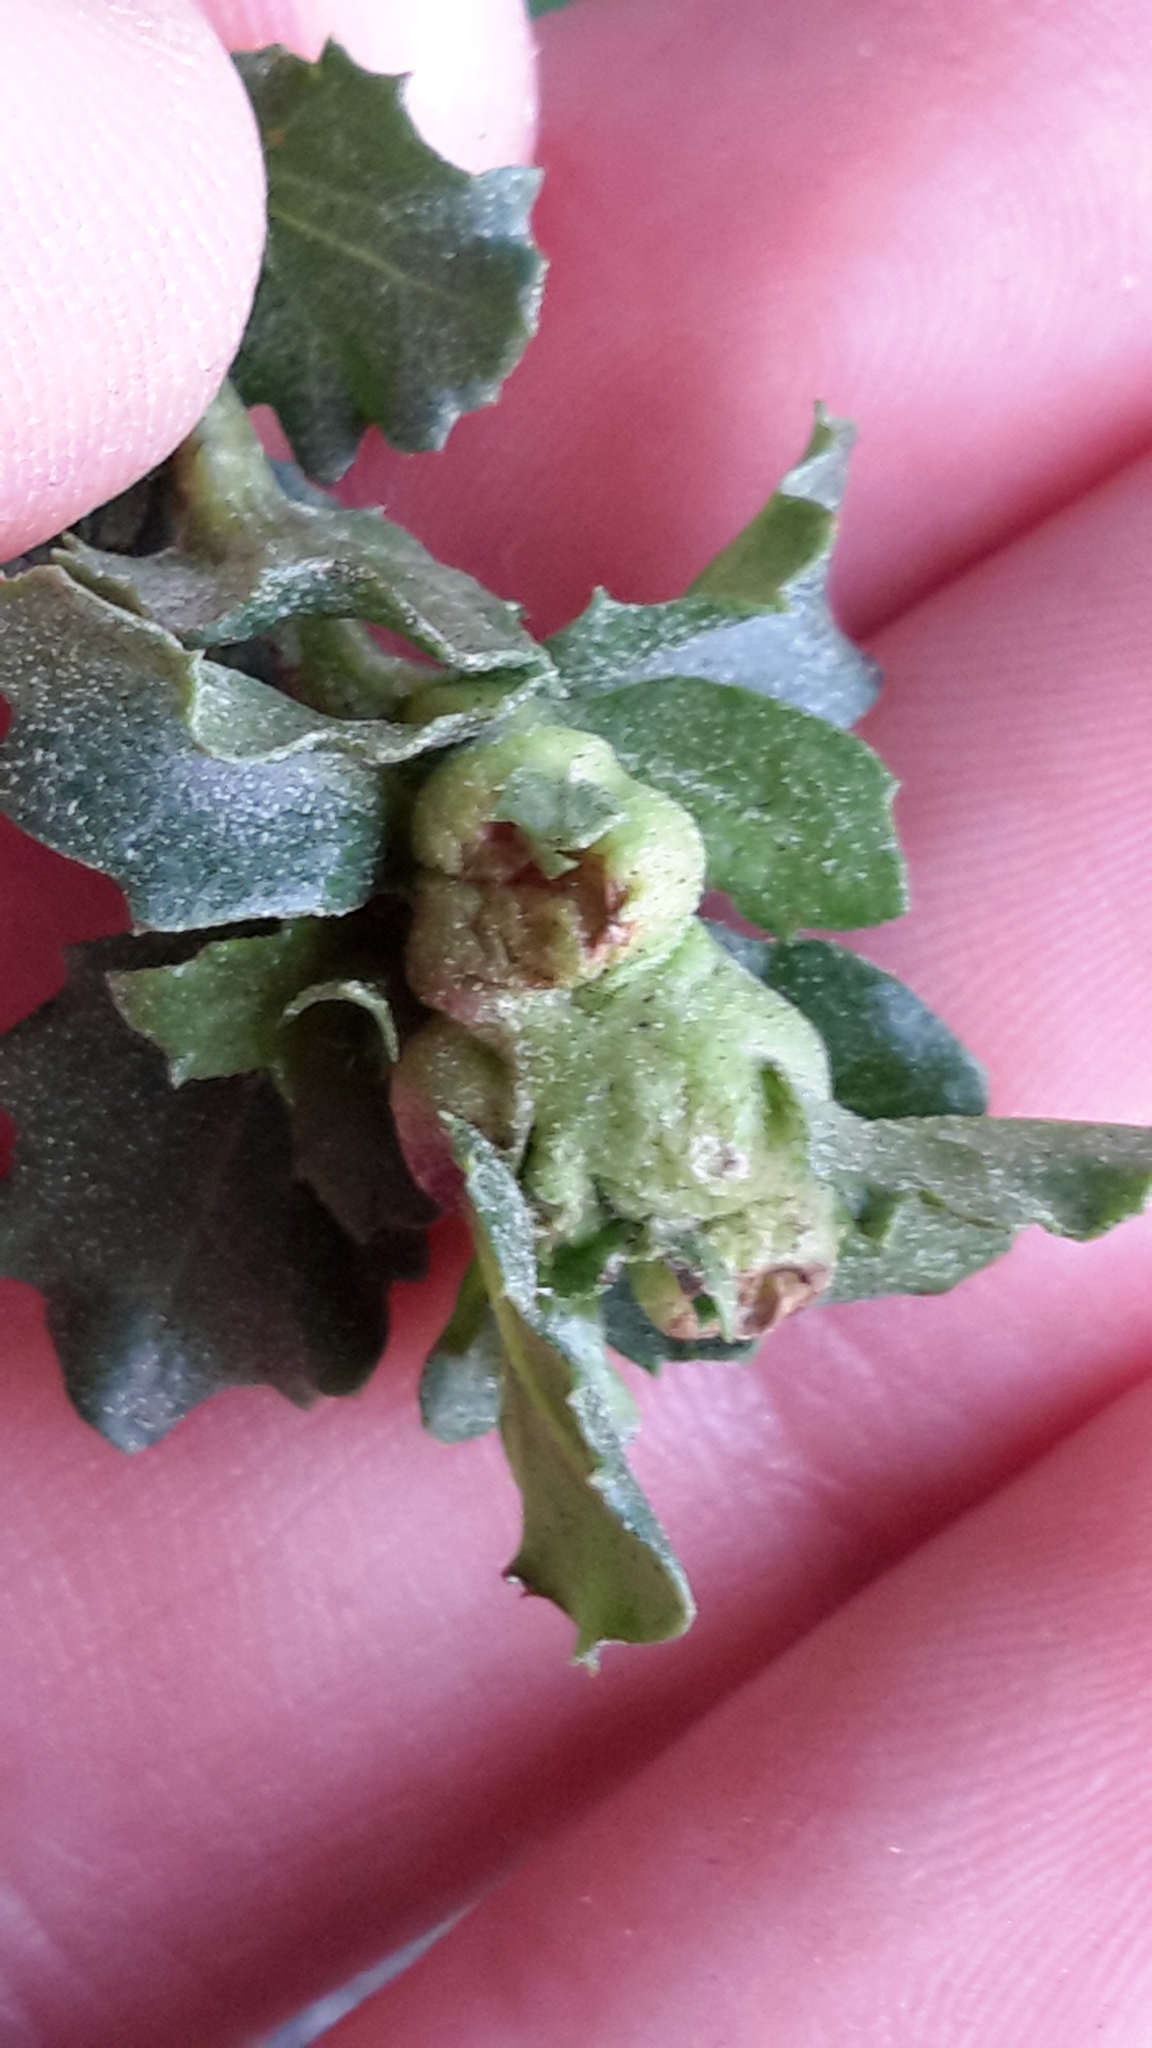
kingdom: Animalia
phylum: Arthropoda
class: Insecta
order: Diptera
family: Cecidomyiidae
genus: Rhopalomyia
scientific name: Rhopalomyia californica
